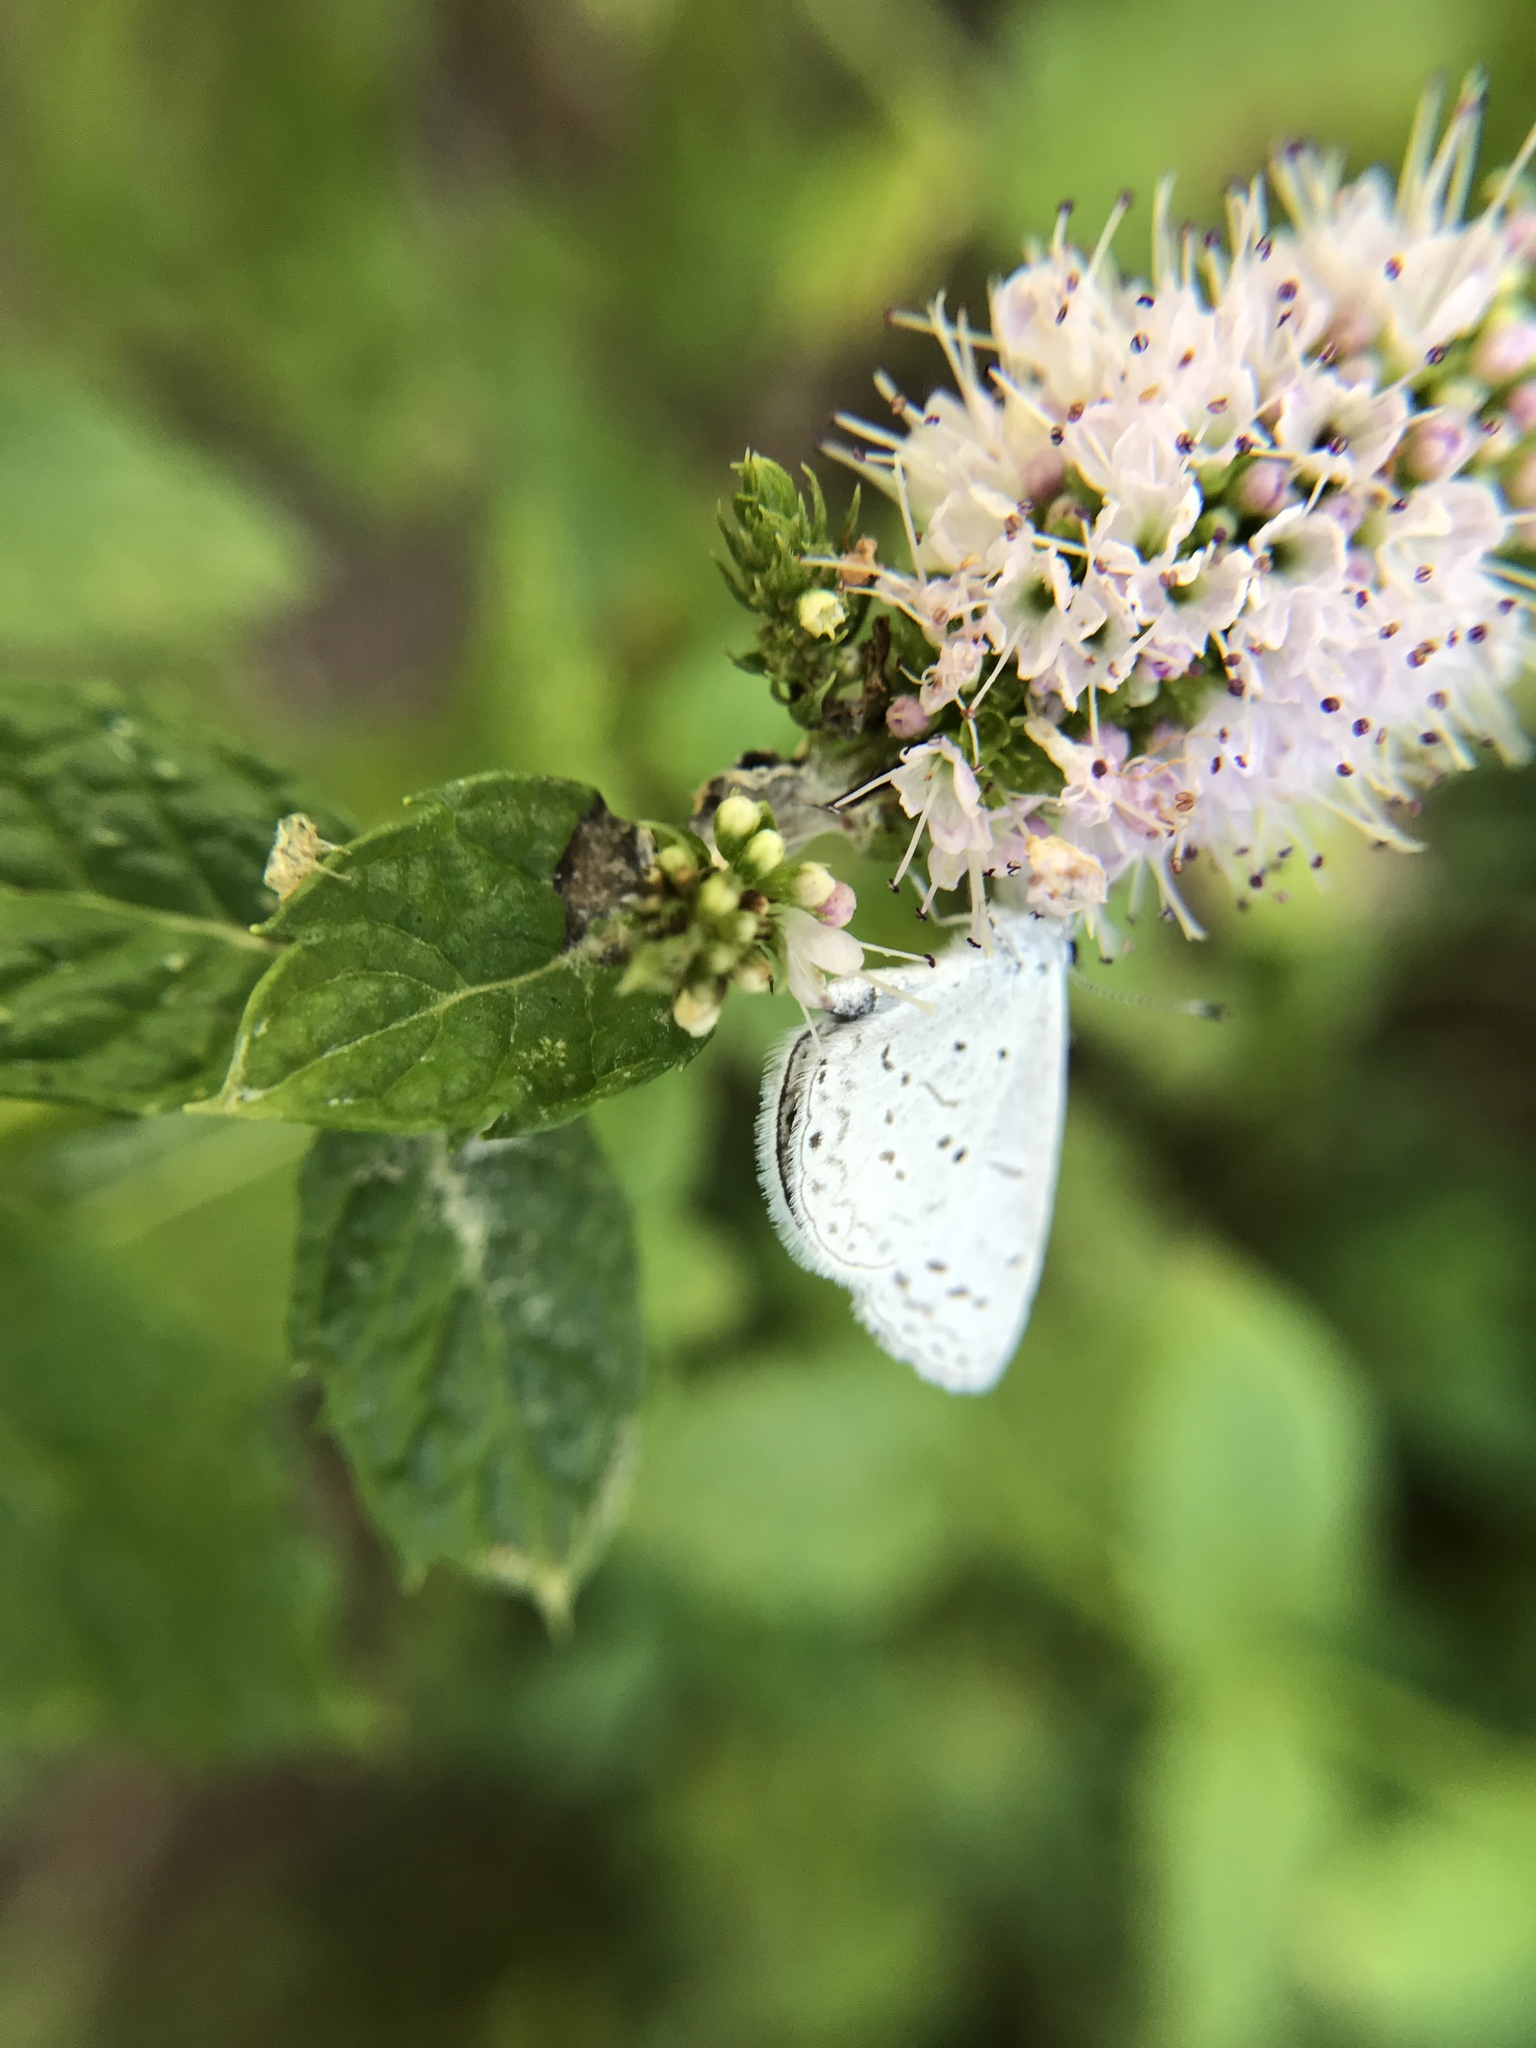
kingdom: Animalia
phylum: Arthropoda
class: Insecta
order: Lepidoptera
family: Lycaenidae
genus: Cyaniris
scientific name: Cyaniris neglecta
